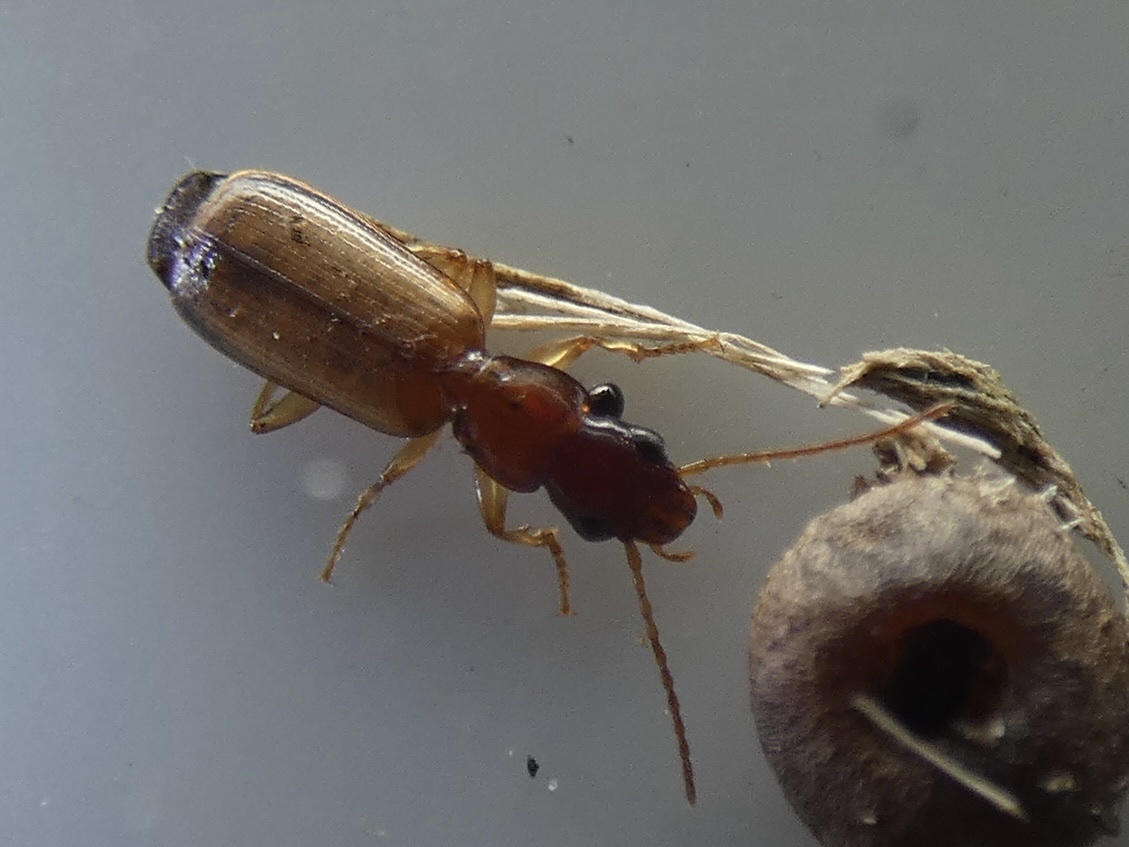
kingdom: Animalia
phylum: Arthropoda
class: Insecta
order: Coleoptera
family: Carabidae
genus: Paradromius
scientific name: Paradromius linearis
